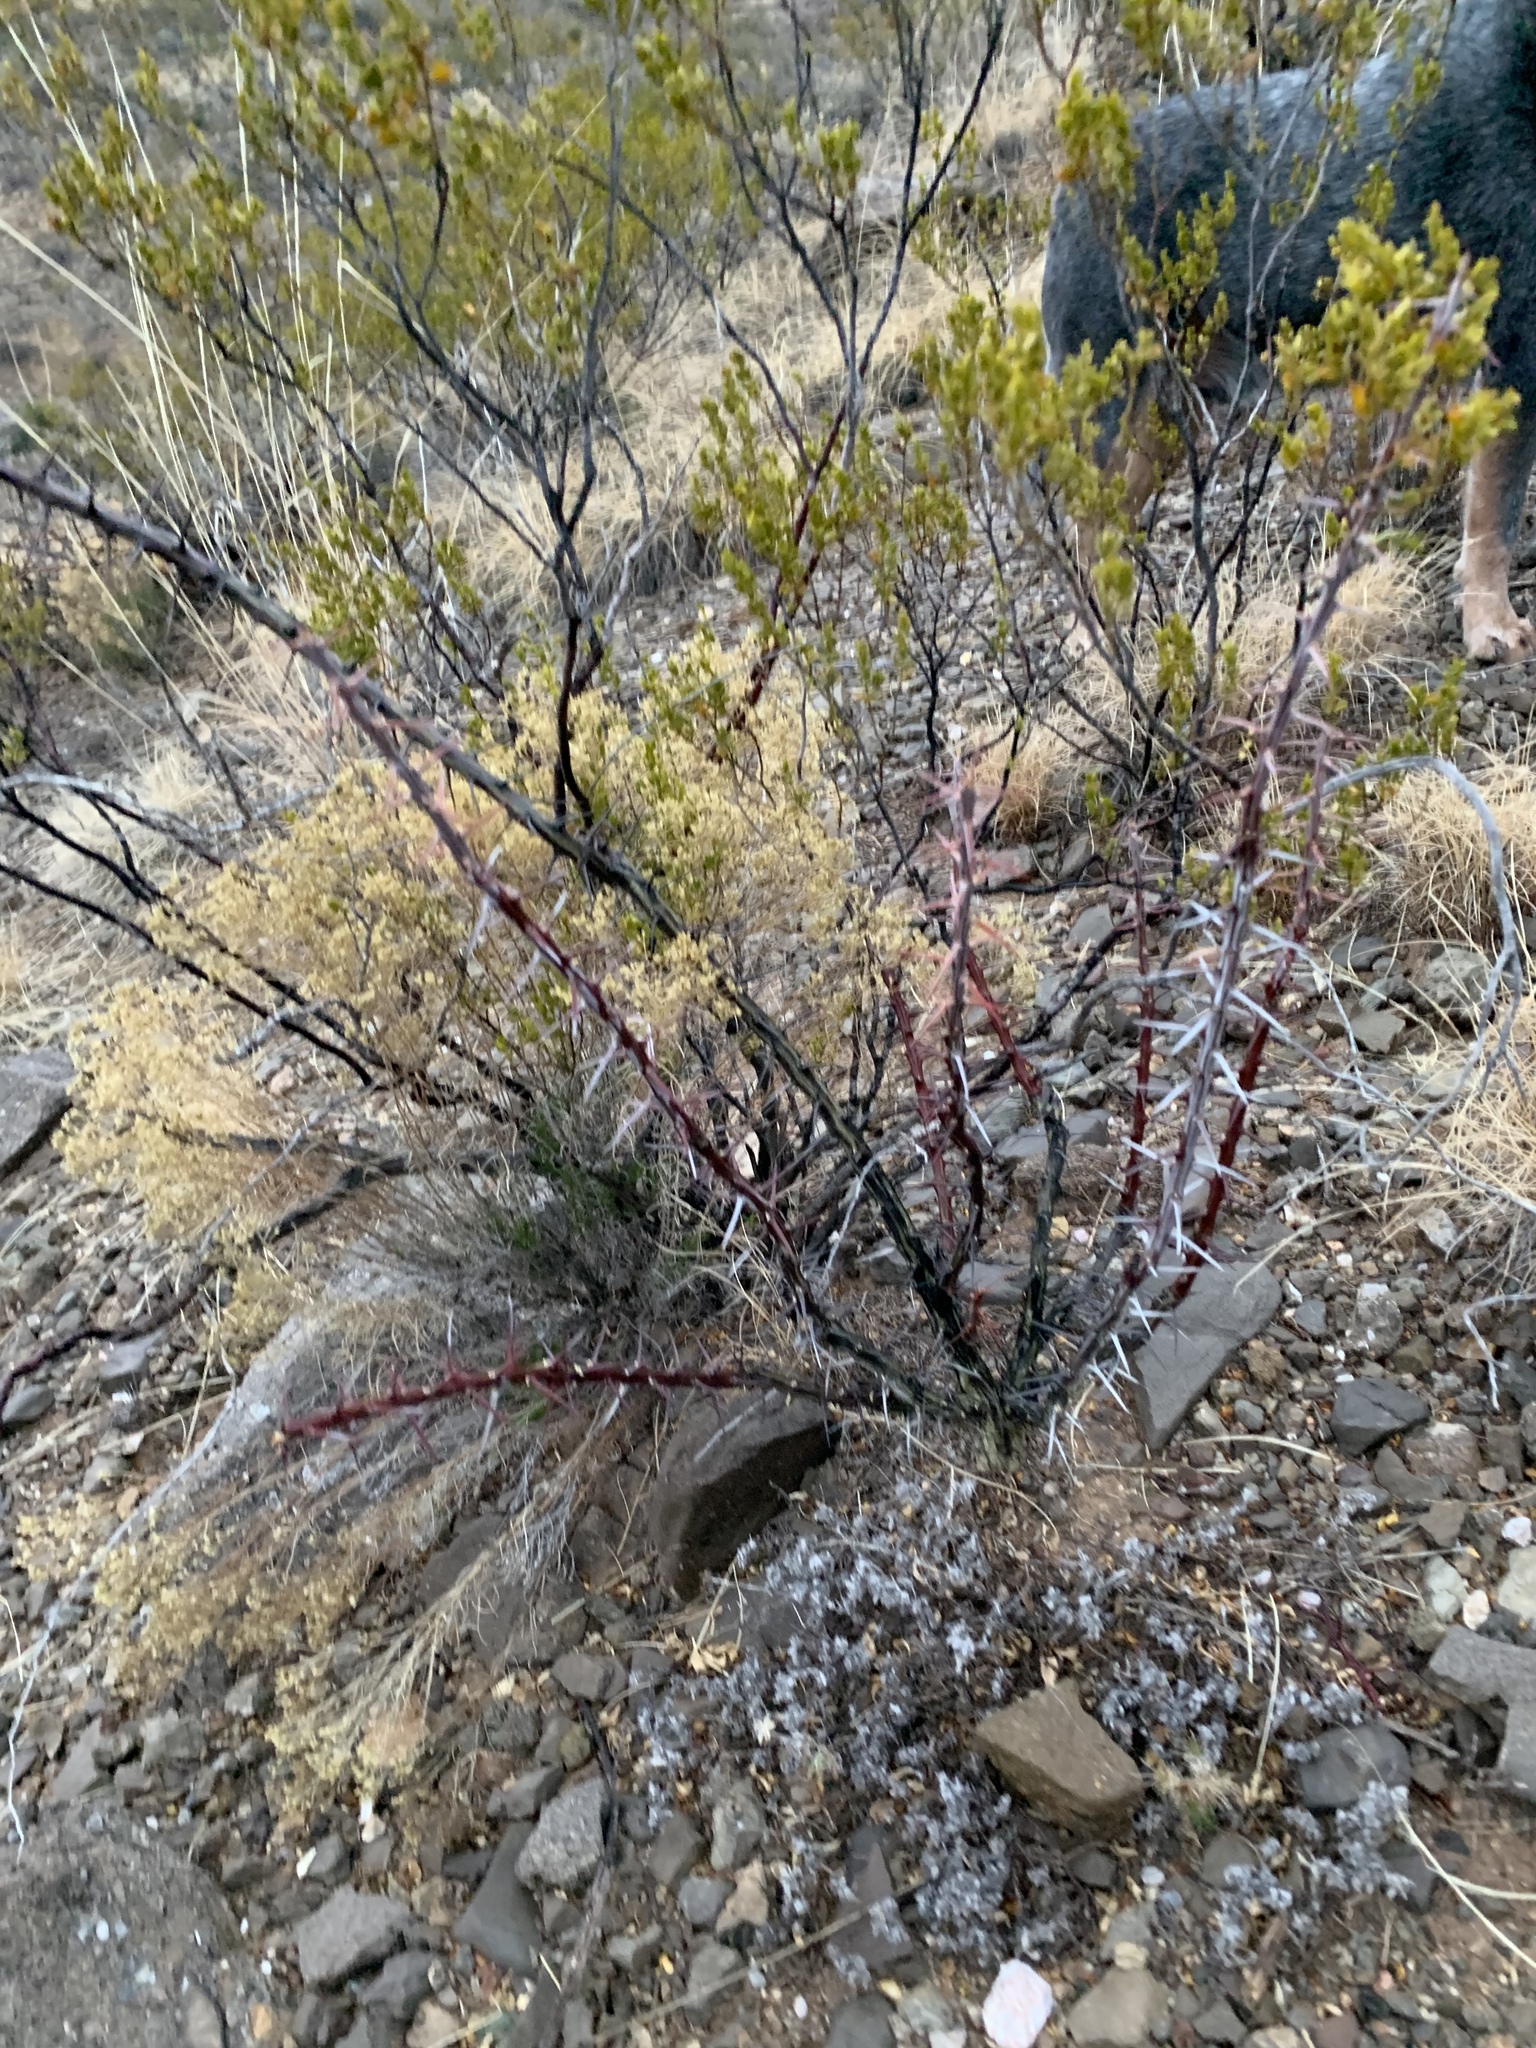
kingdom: Plantae
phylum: Tracheophyta
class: Magnoliopsida
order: Ericales
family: Fouquieriaceae
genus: Fouquieria
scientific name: Fouquieria splendens
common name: Vine-cactus
